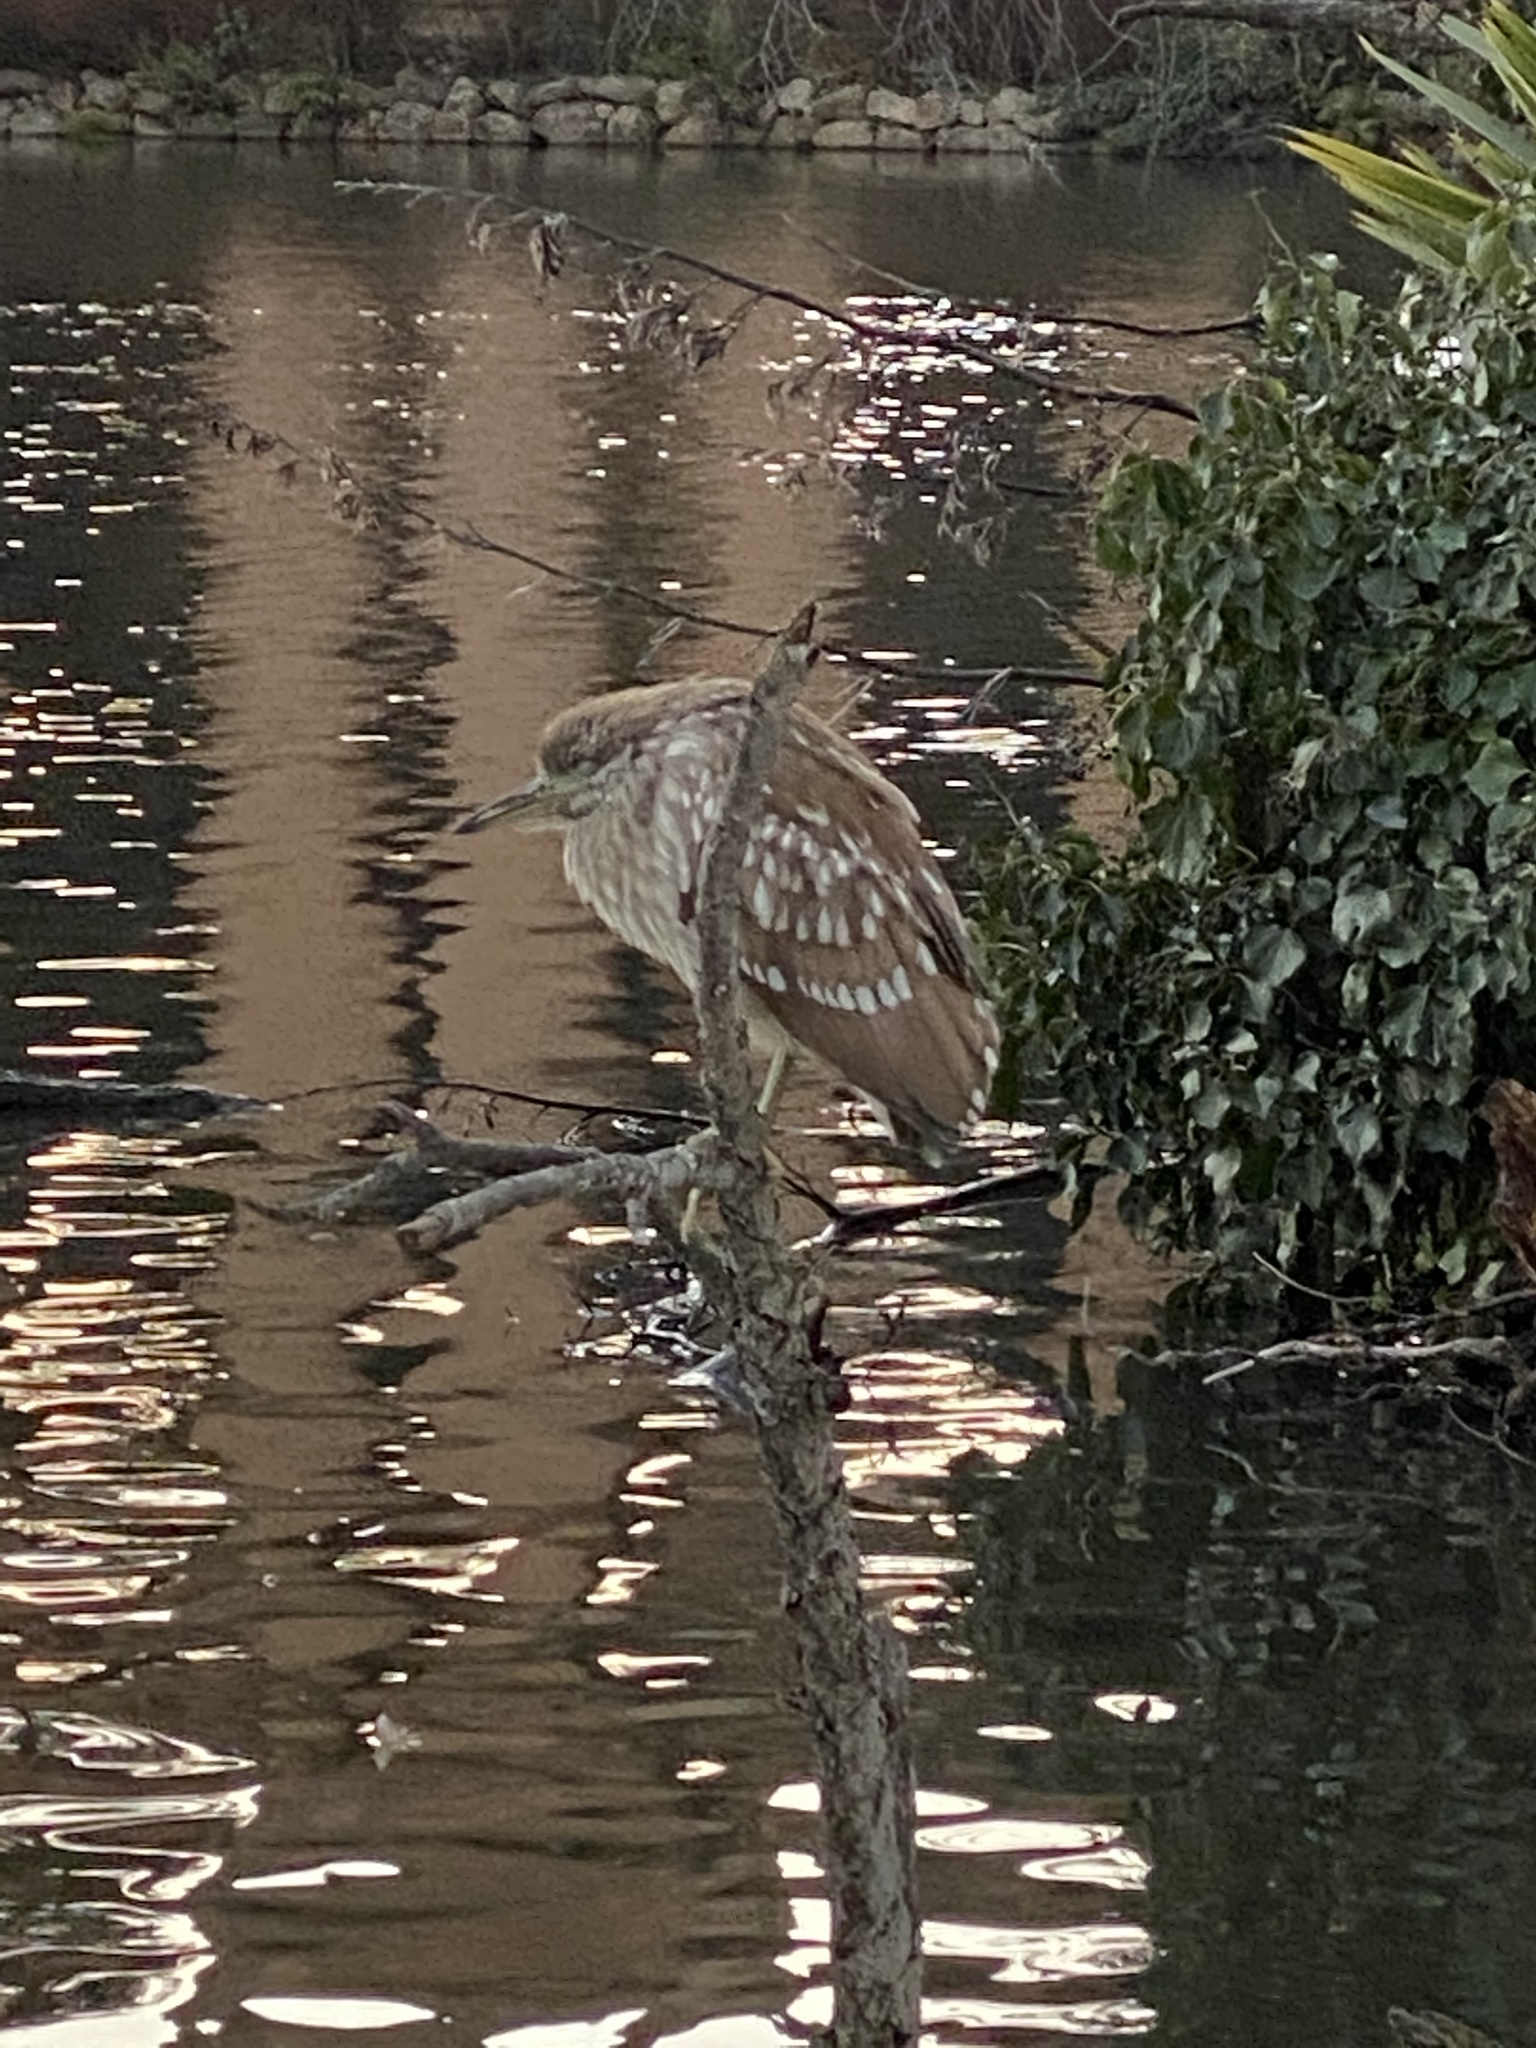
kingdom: Animalia
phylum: Chordata
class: Aves
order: Pelecaniformes
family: Ardeidae
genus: Nycticorax
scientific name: Nycticorax nycticorax
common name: Black-crowned night heron
